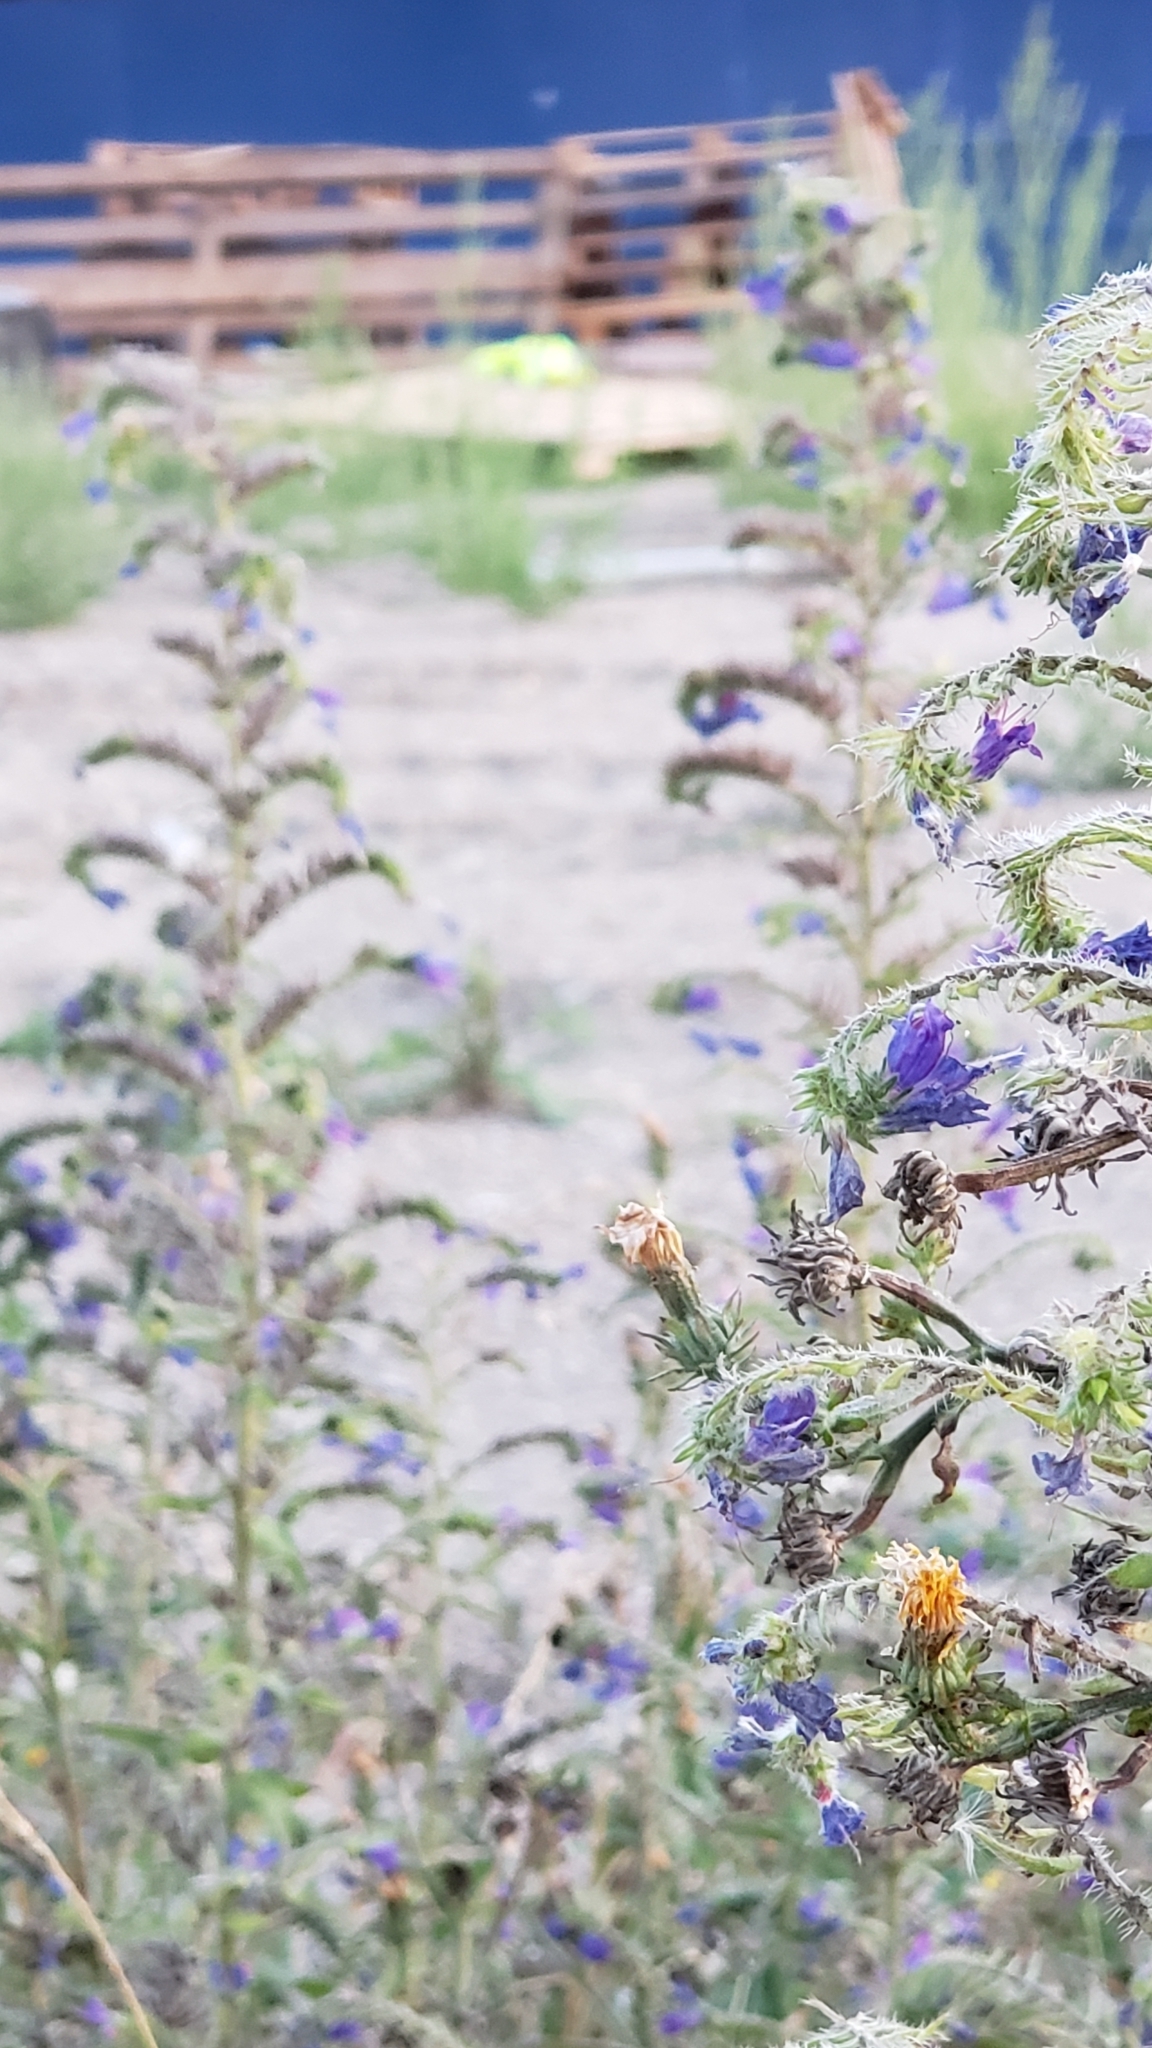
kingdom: Plantae
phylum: Tracheophyta
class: Magnoliopsida
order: Boraginales
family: Boraginaceae
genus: Echium
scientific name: Echium vulgare
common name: Common viper's bugloss
